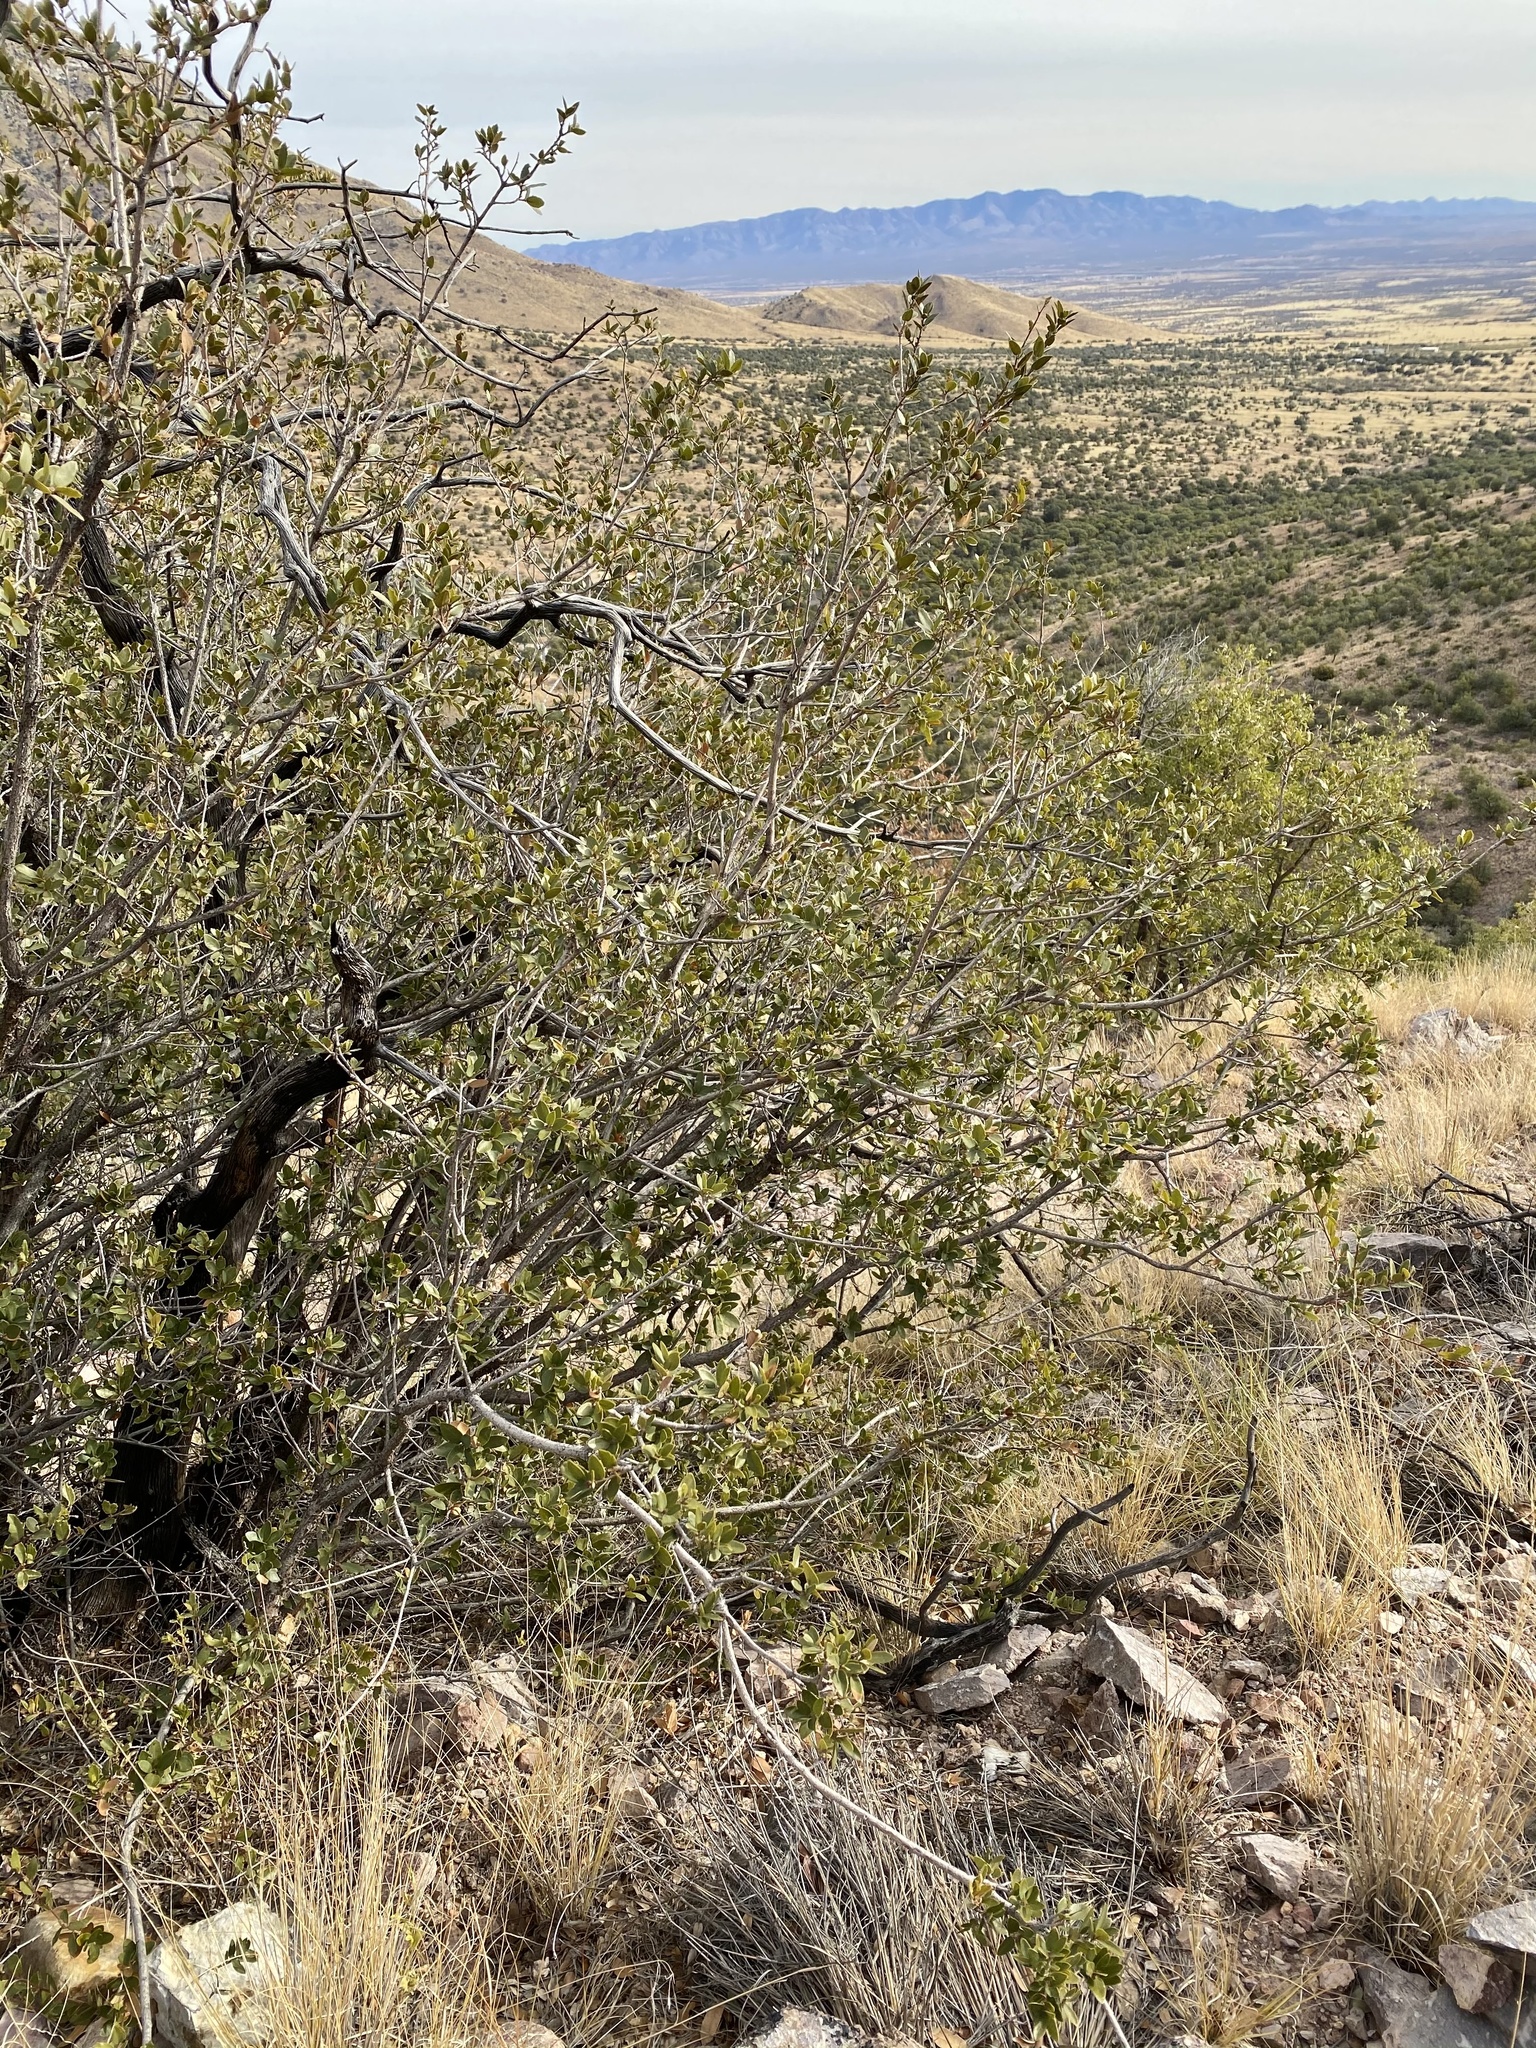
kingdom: Plantae
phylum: Tracheophyta
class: Magnoliopsida
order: Fagales
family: Fagaceae
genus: Quercus
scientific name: Quercus toumeyi
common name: Toumey oak
